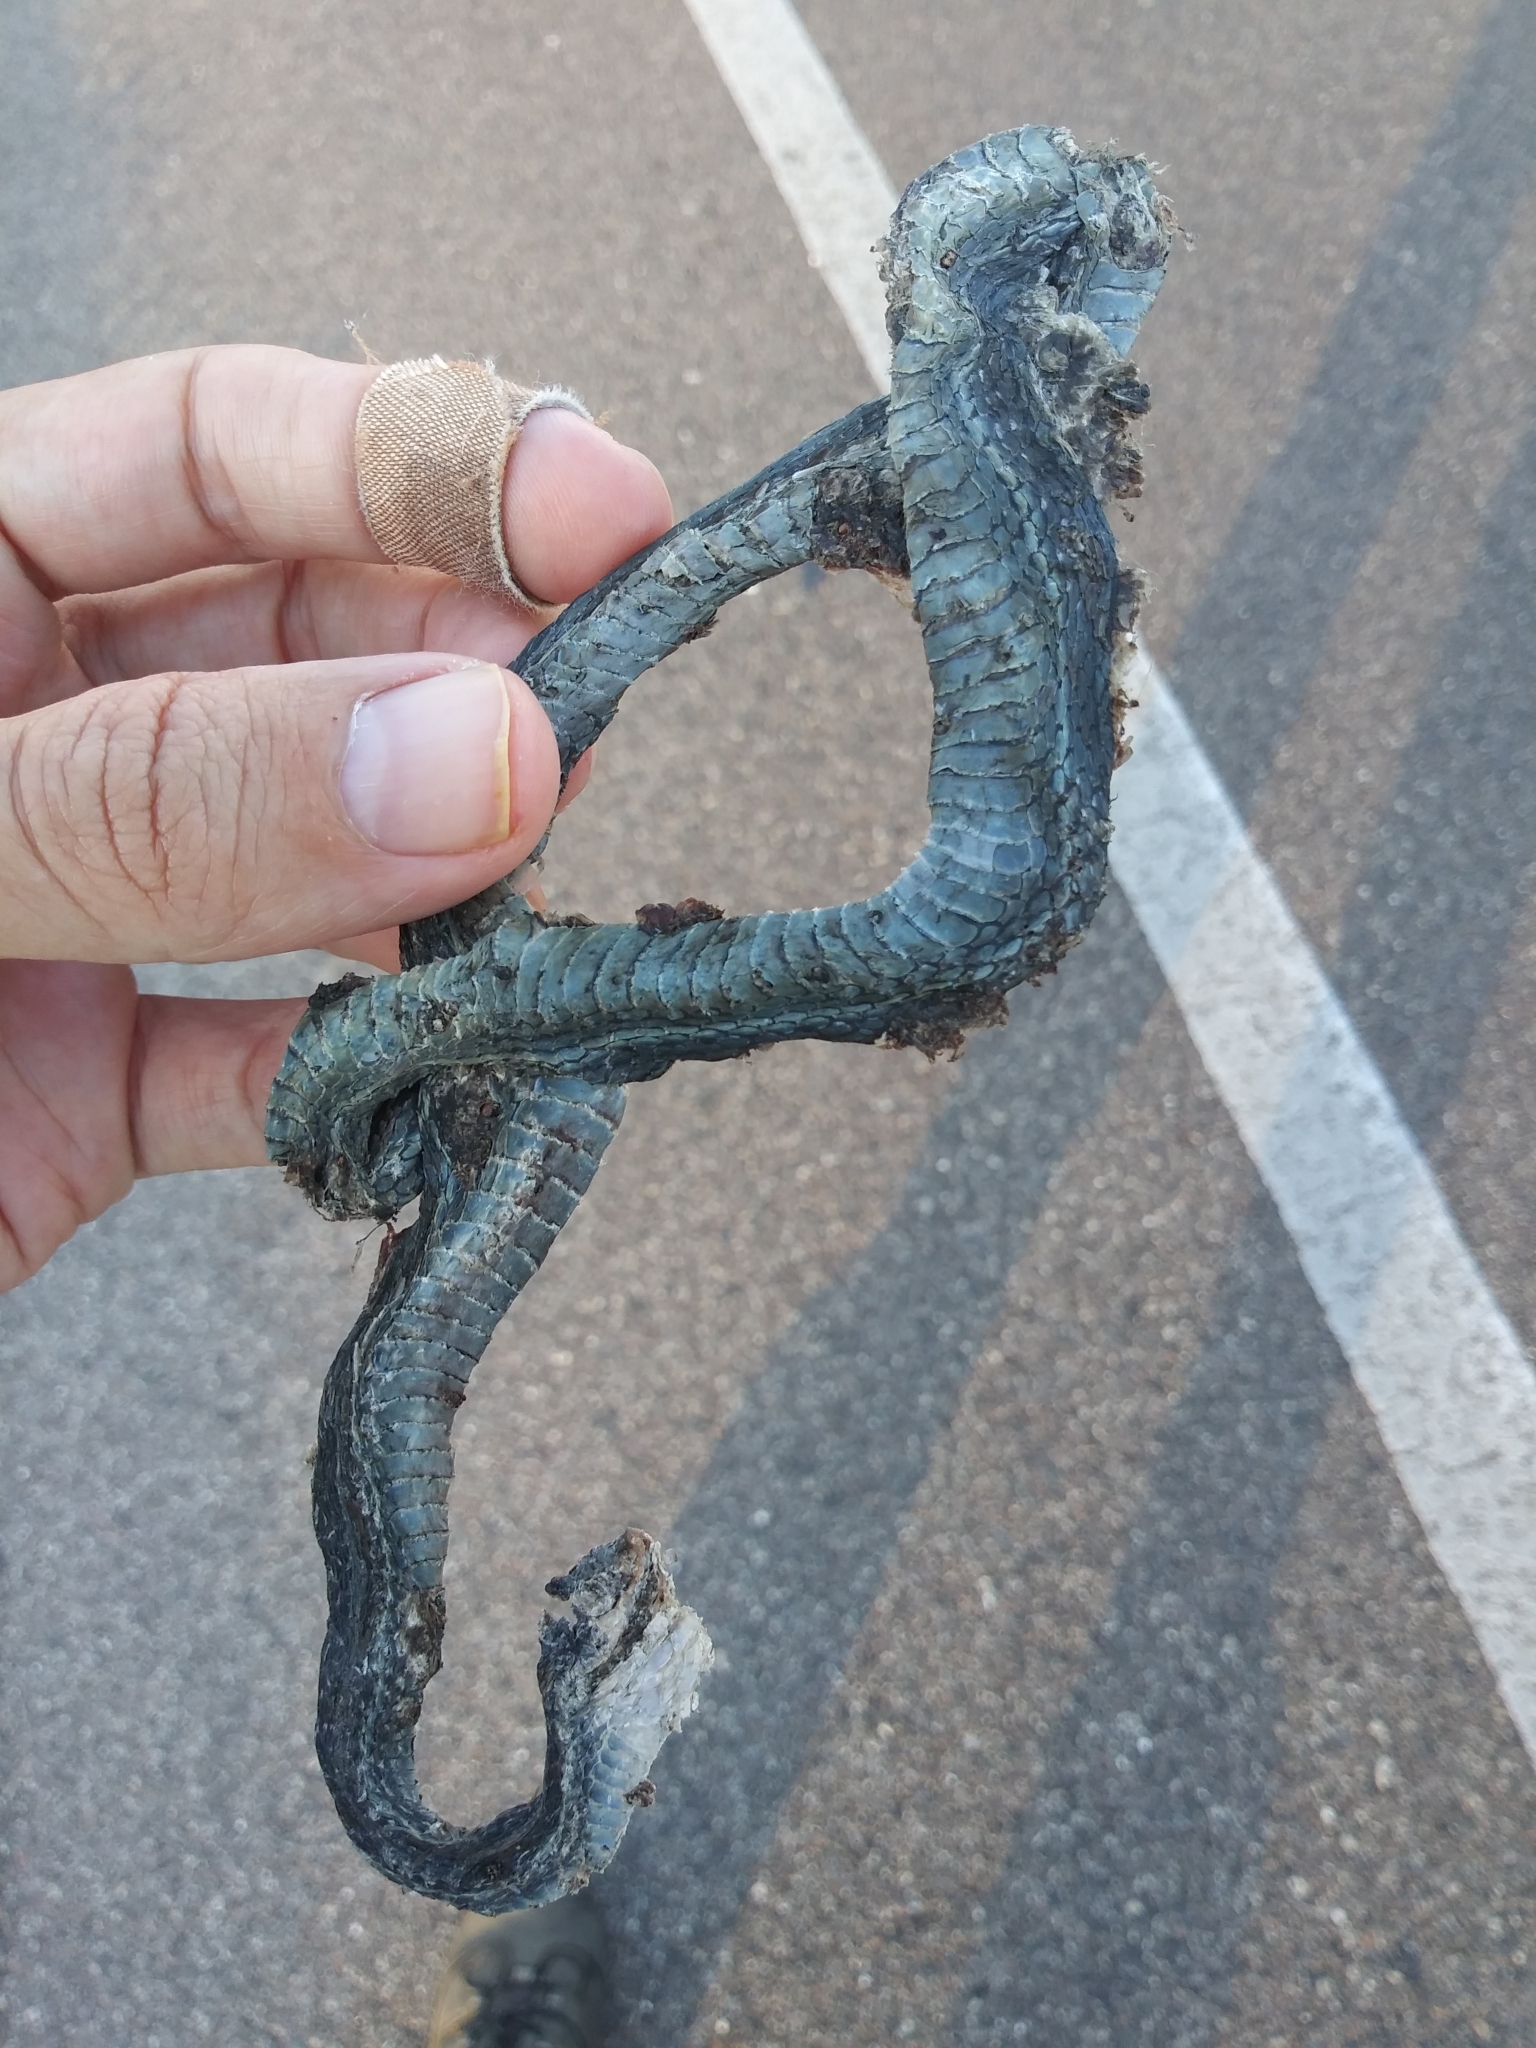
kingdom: Animalia
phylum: Chordata
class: Squamata
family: Colubridae
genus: Thamnophis
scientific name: Thamnophis saurita
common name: Eastern ribbonsnake
